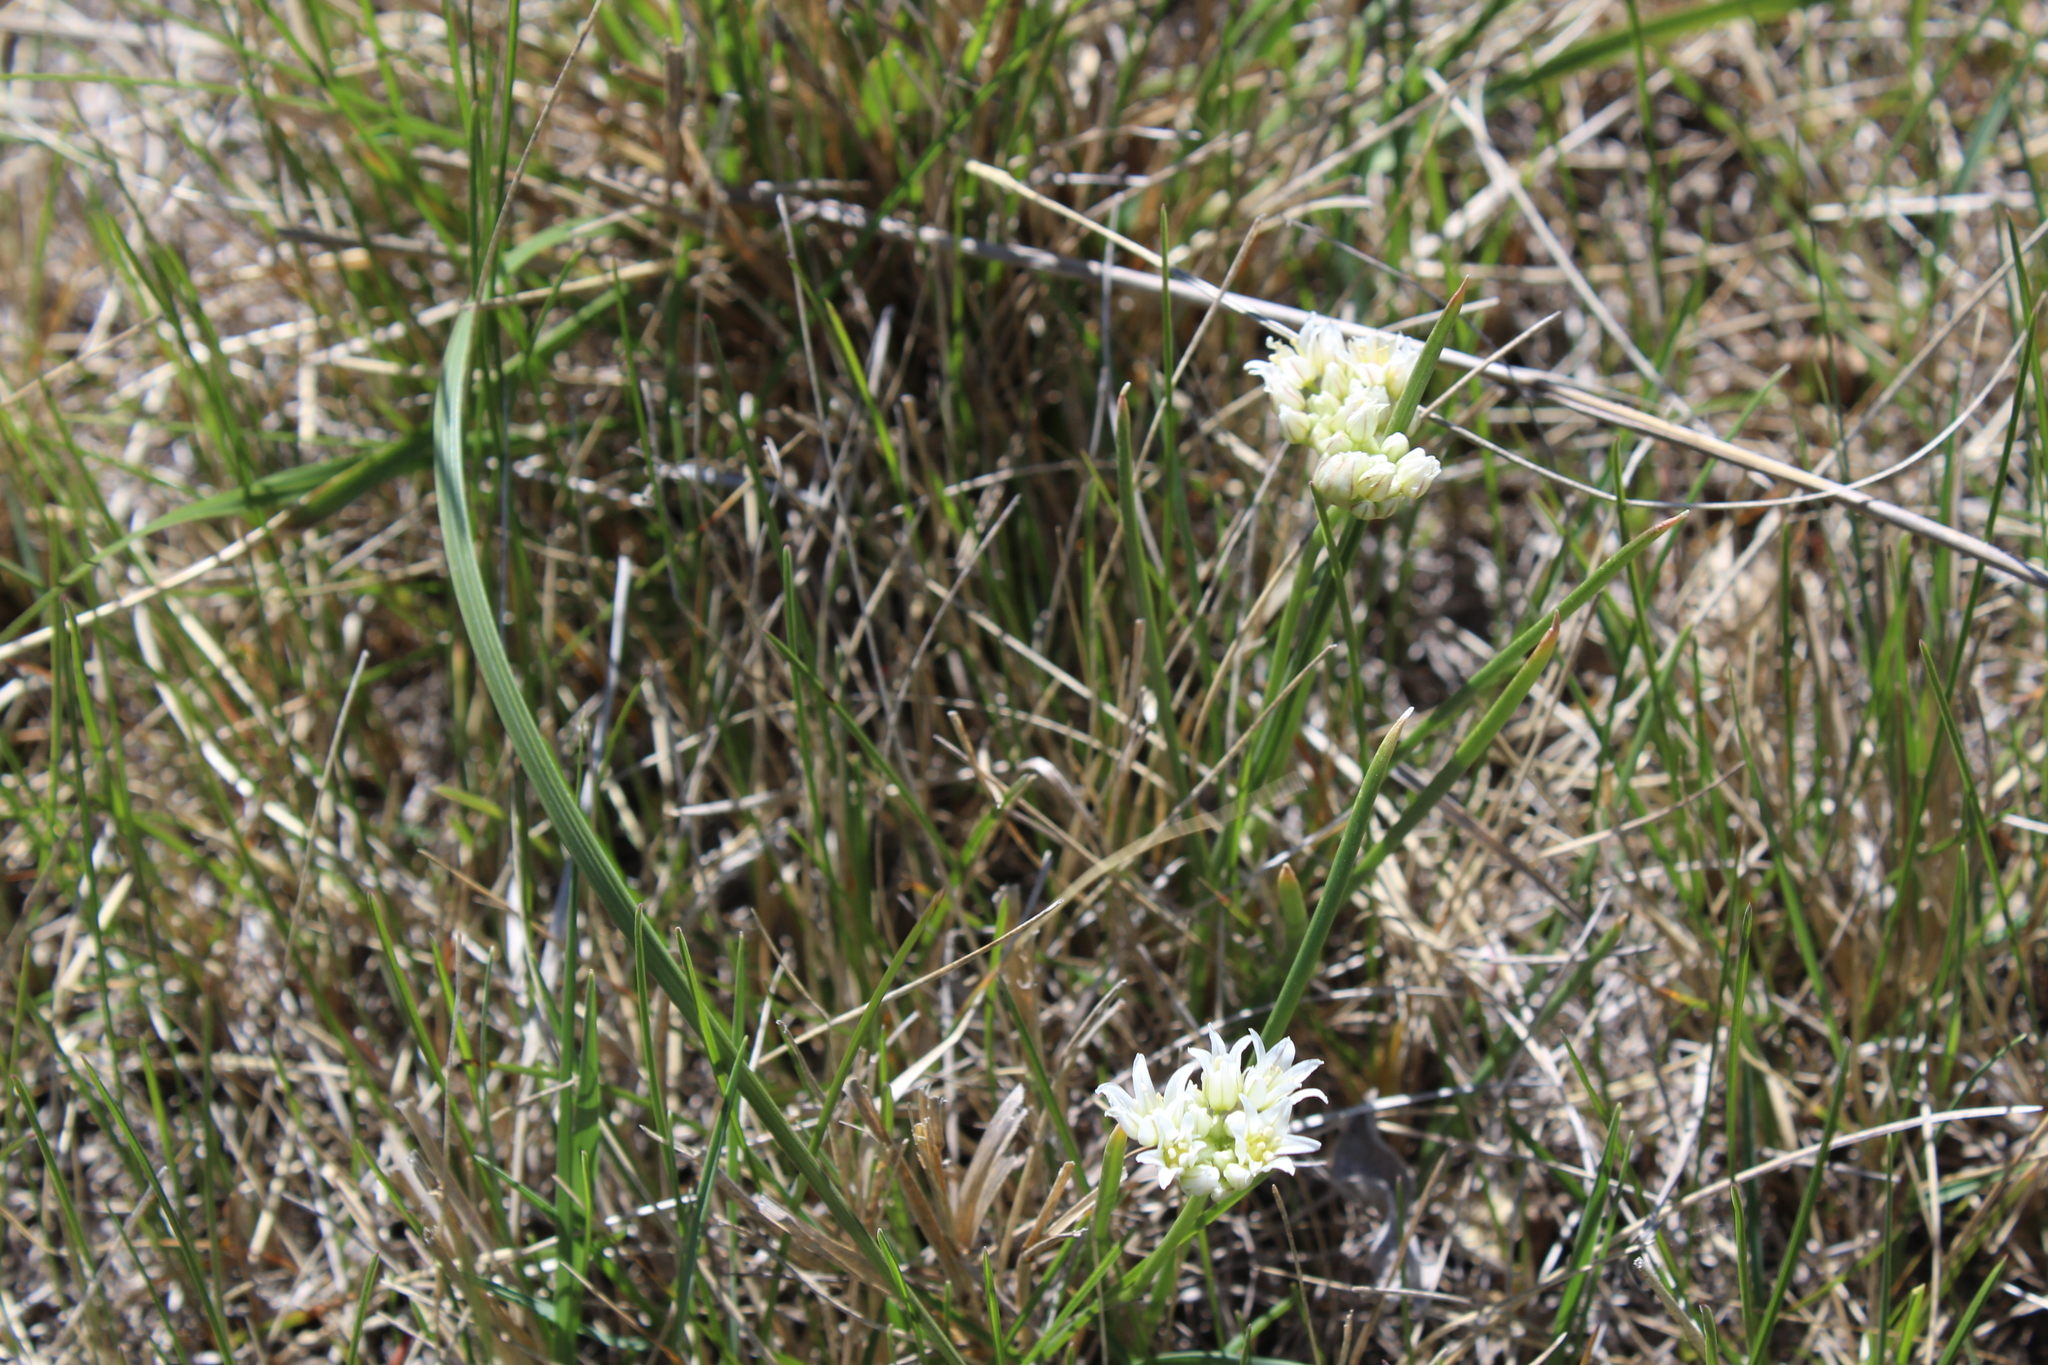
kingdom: Plantae
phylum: Tracheophyta
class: Liliopsida
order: Asparagales
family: Amaryllidaceae
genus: Allium
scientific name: Allium textile
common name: Prairie onion
